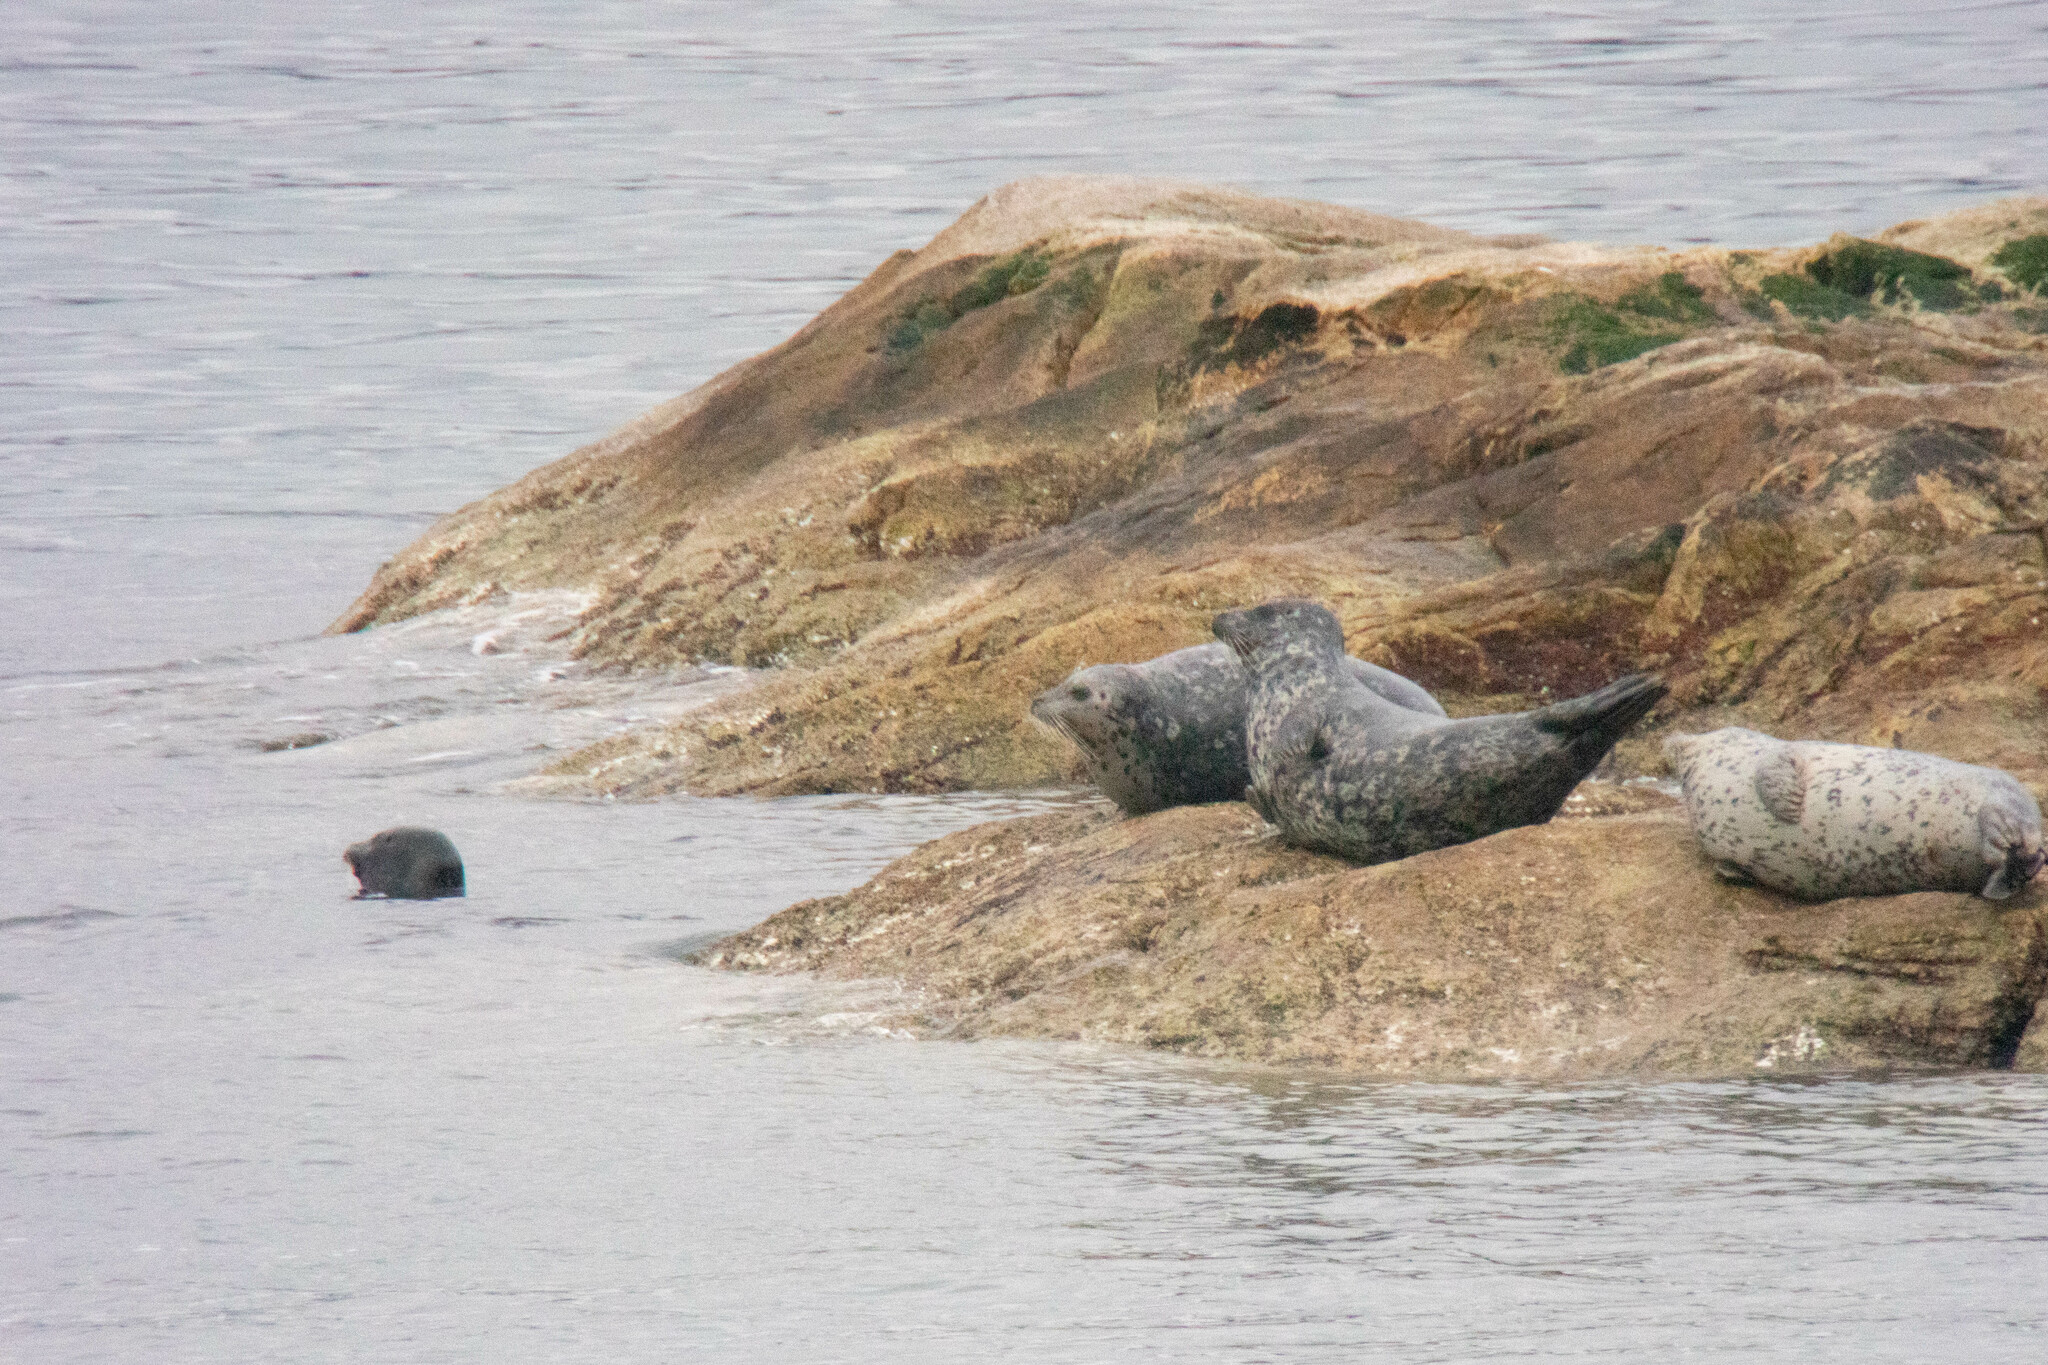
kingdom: Animalia
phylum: Chordata
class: Mammalia
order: Carnivora
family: Phocidae
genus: Phoca
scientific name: Phoca vitulina
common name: Harbor seal
